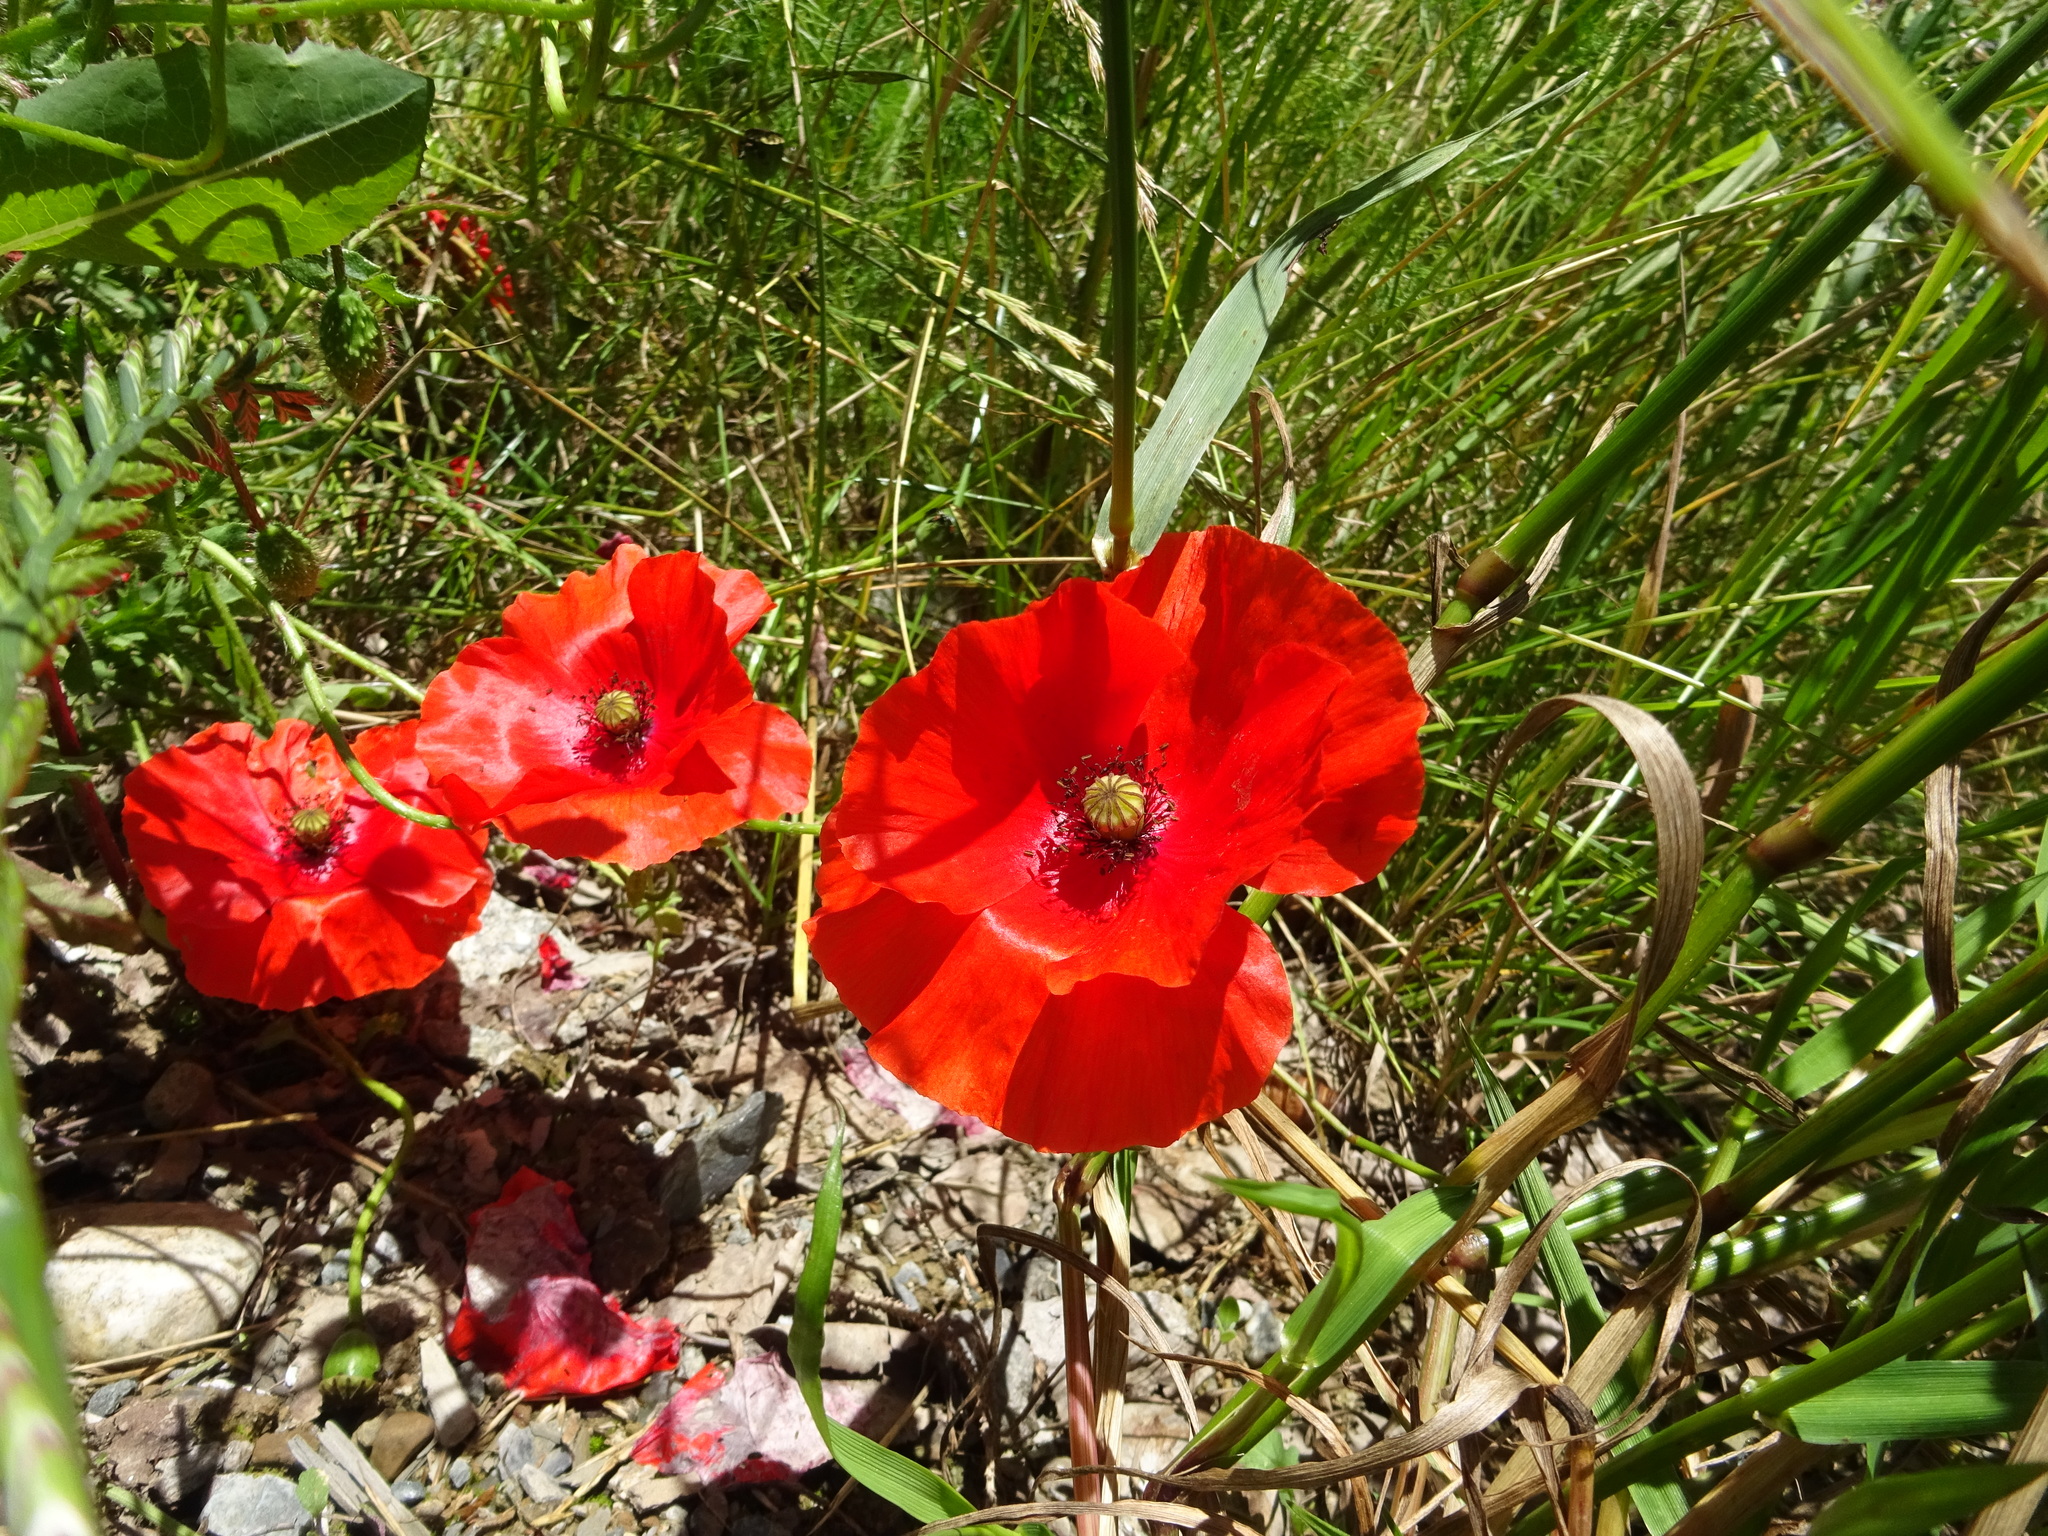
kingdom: Plantae
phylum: Tracheophyta
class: Magnoliopsida
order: Ranunculales
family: Papaveraceae
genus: Papaver
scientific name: Papaver rhoeas
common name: Corn poppy
